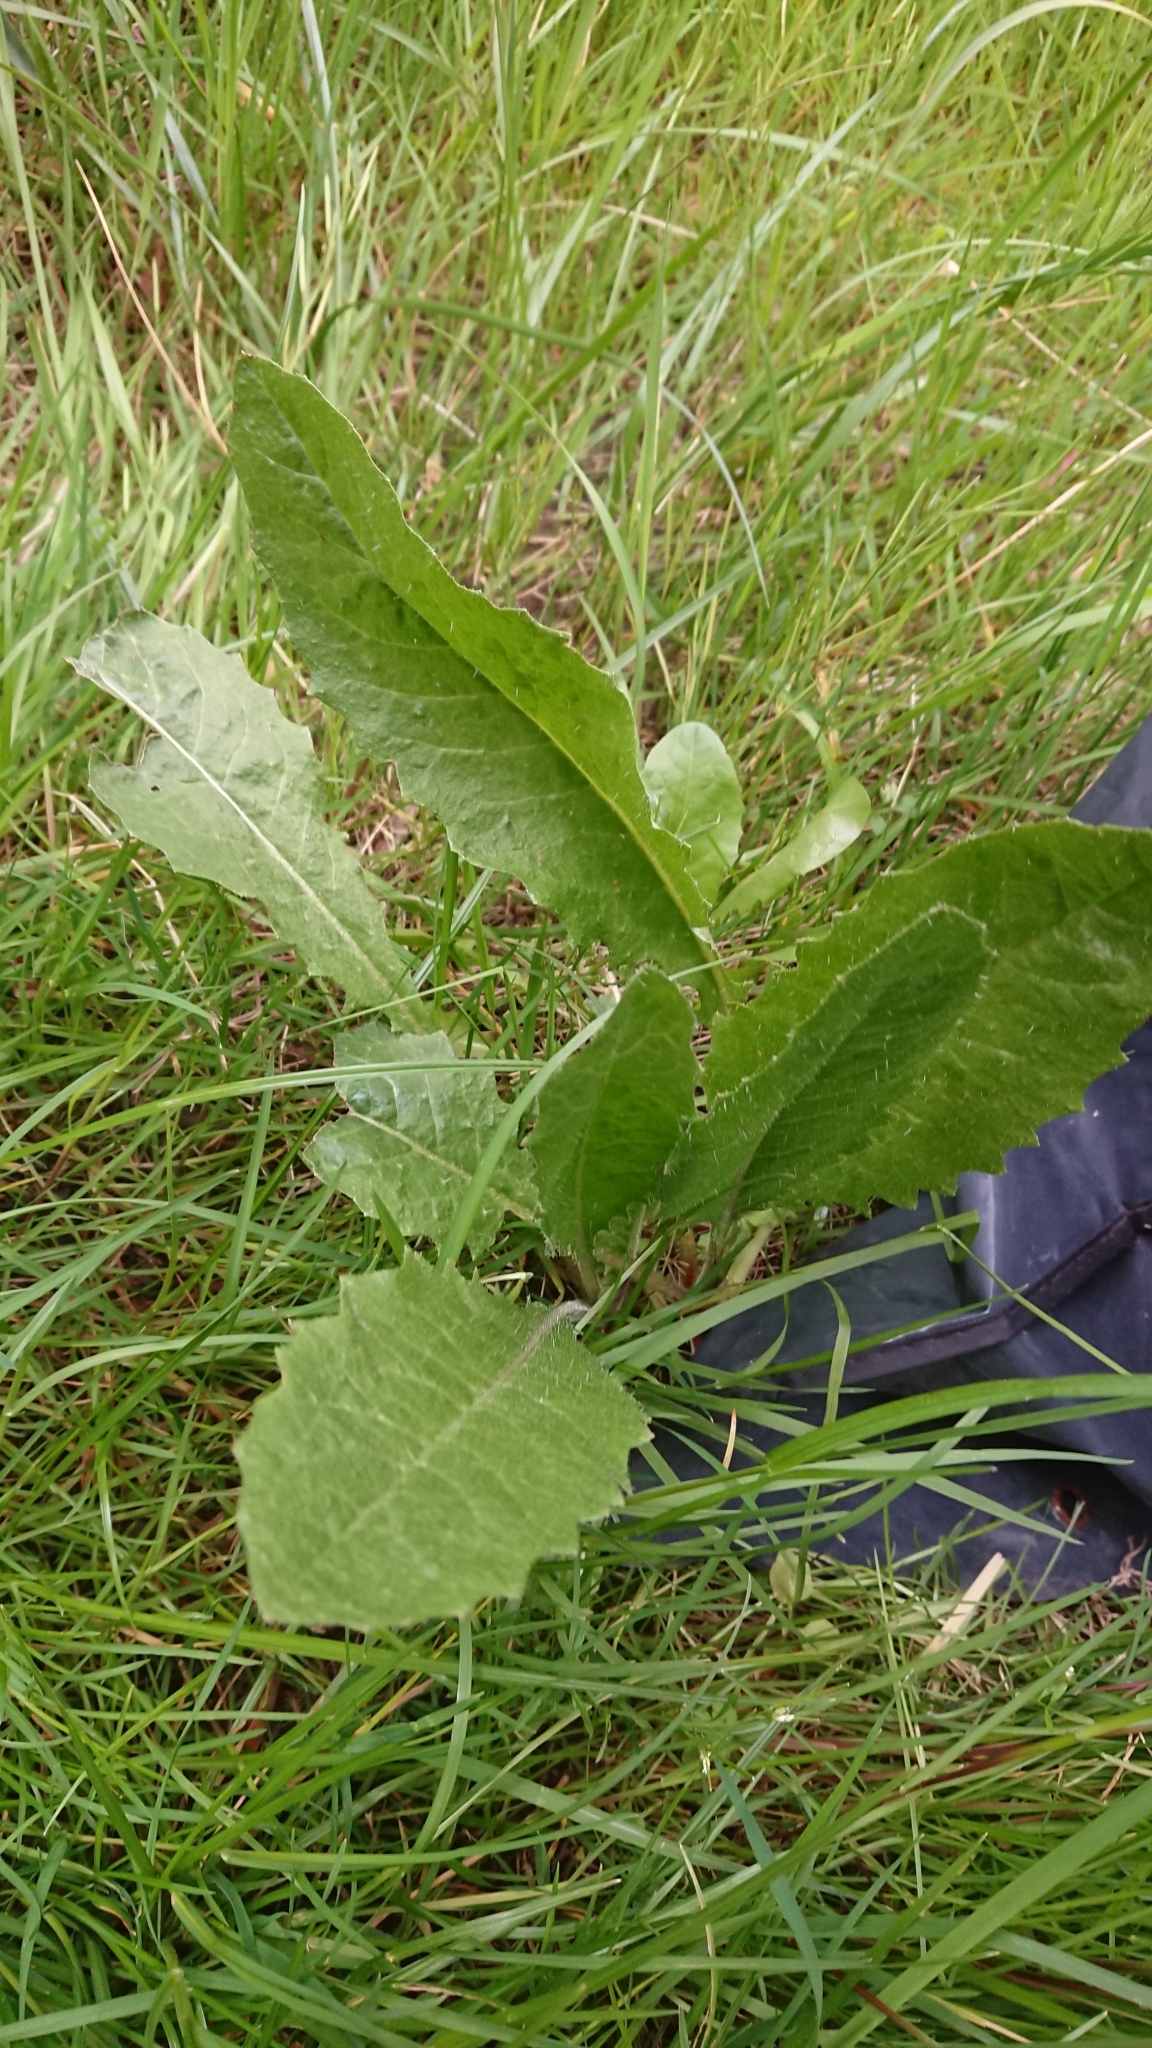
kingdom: Plantae
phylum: Tracheophyta
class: Magnoliopsida
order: Asterales
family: Asteraceae
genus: Helminthotheca
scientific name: Helminthotheca echioides
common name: Ox-tongue
